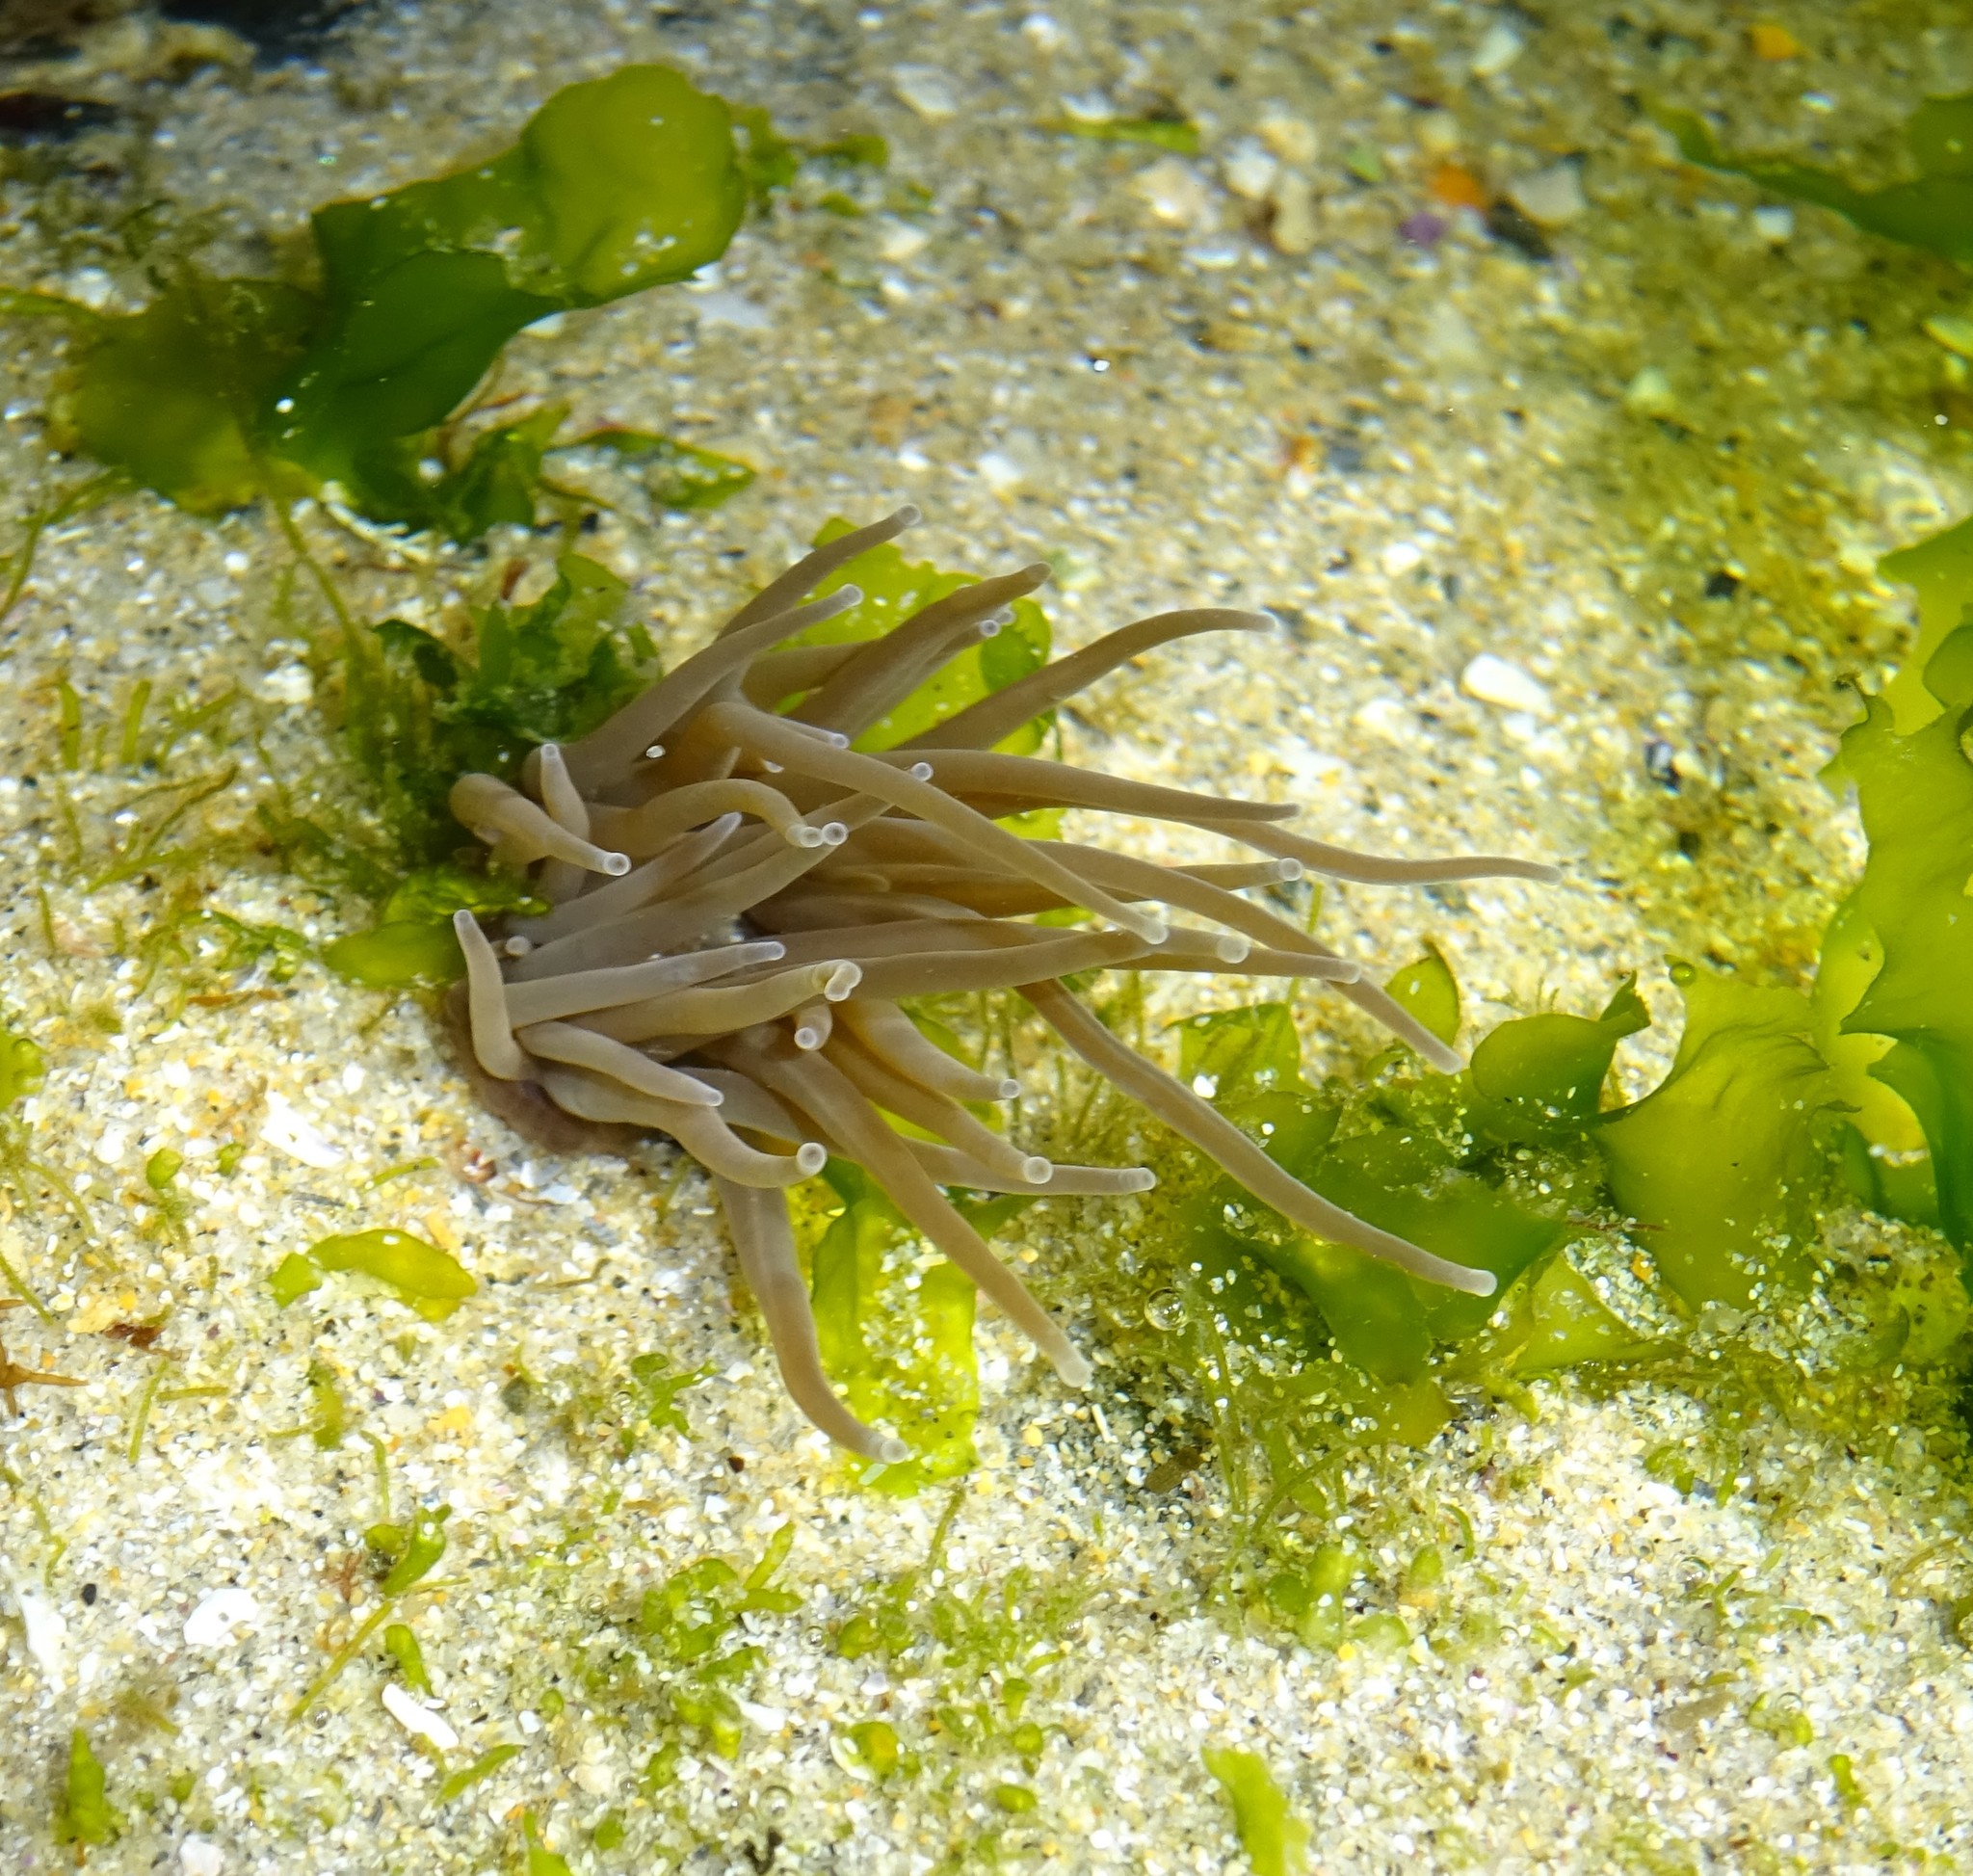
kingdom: Animalia
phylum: Cnidaria
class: Anthozoa
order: Actiniaria
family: Actiniidae
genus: Anemonia
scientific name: Anemonia viridis
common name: Snakelocks anemone
